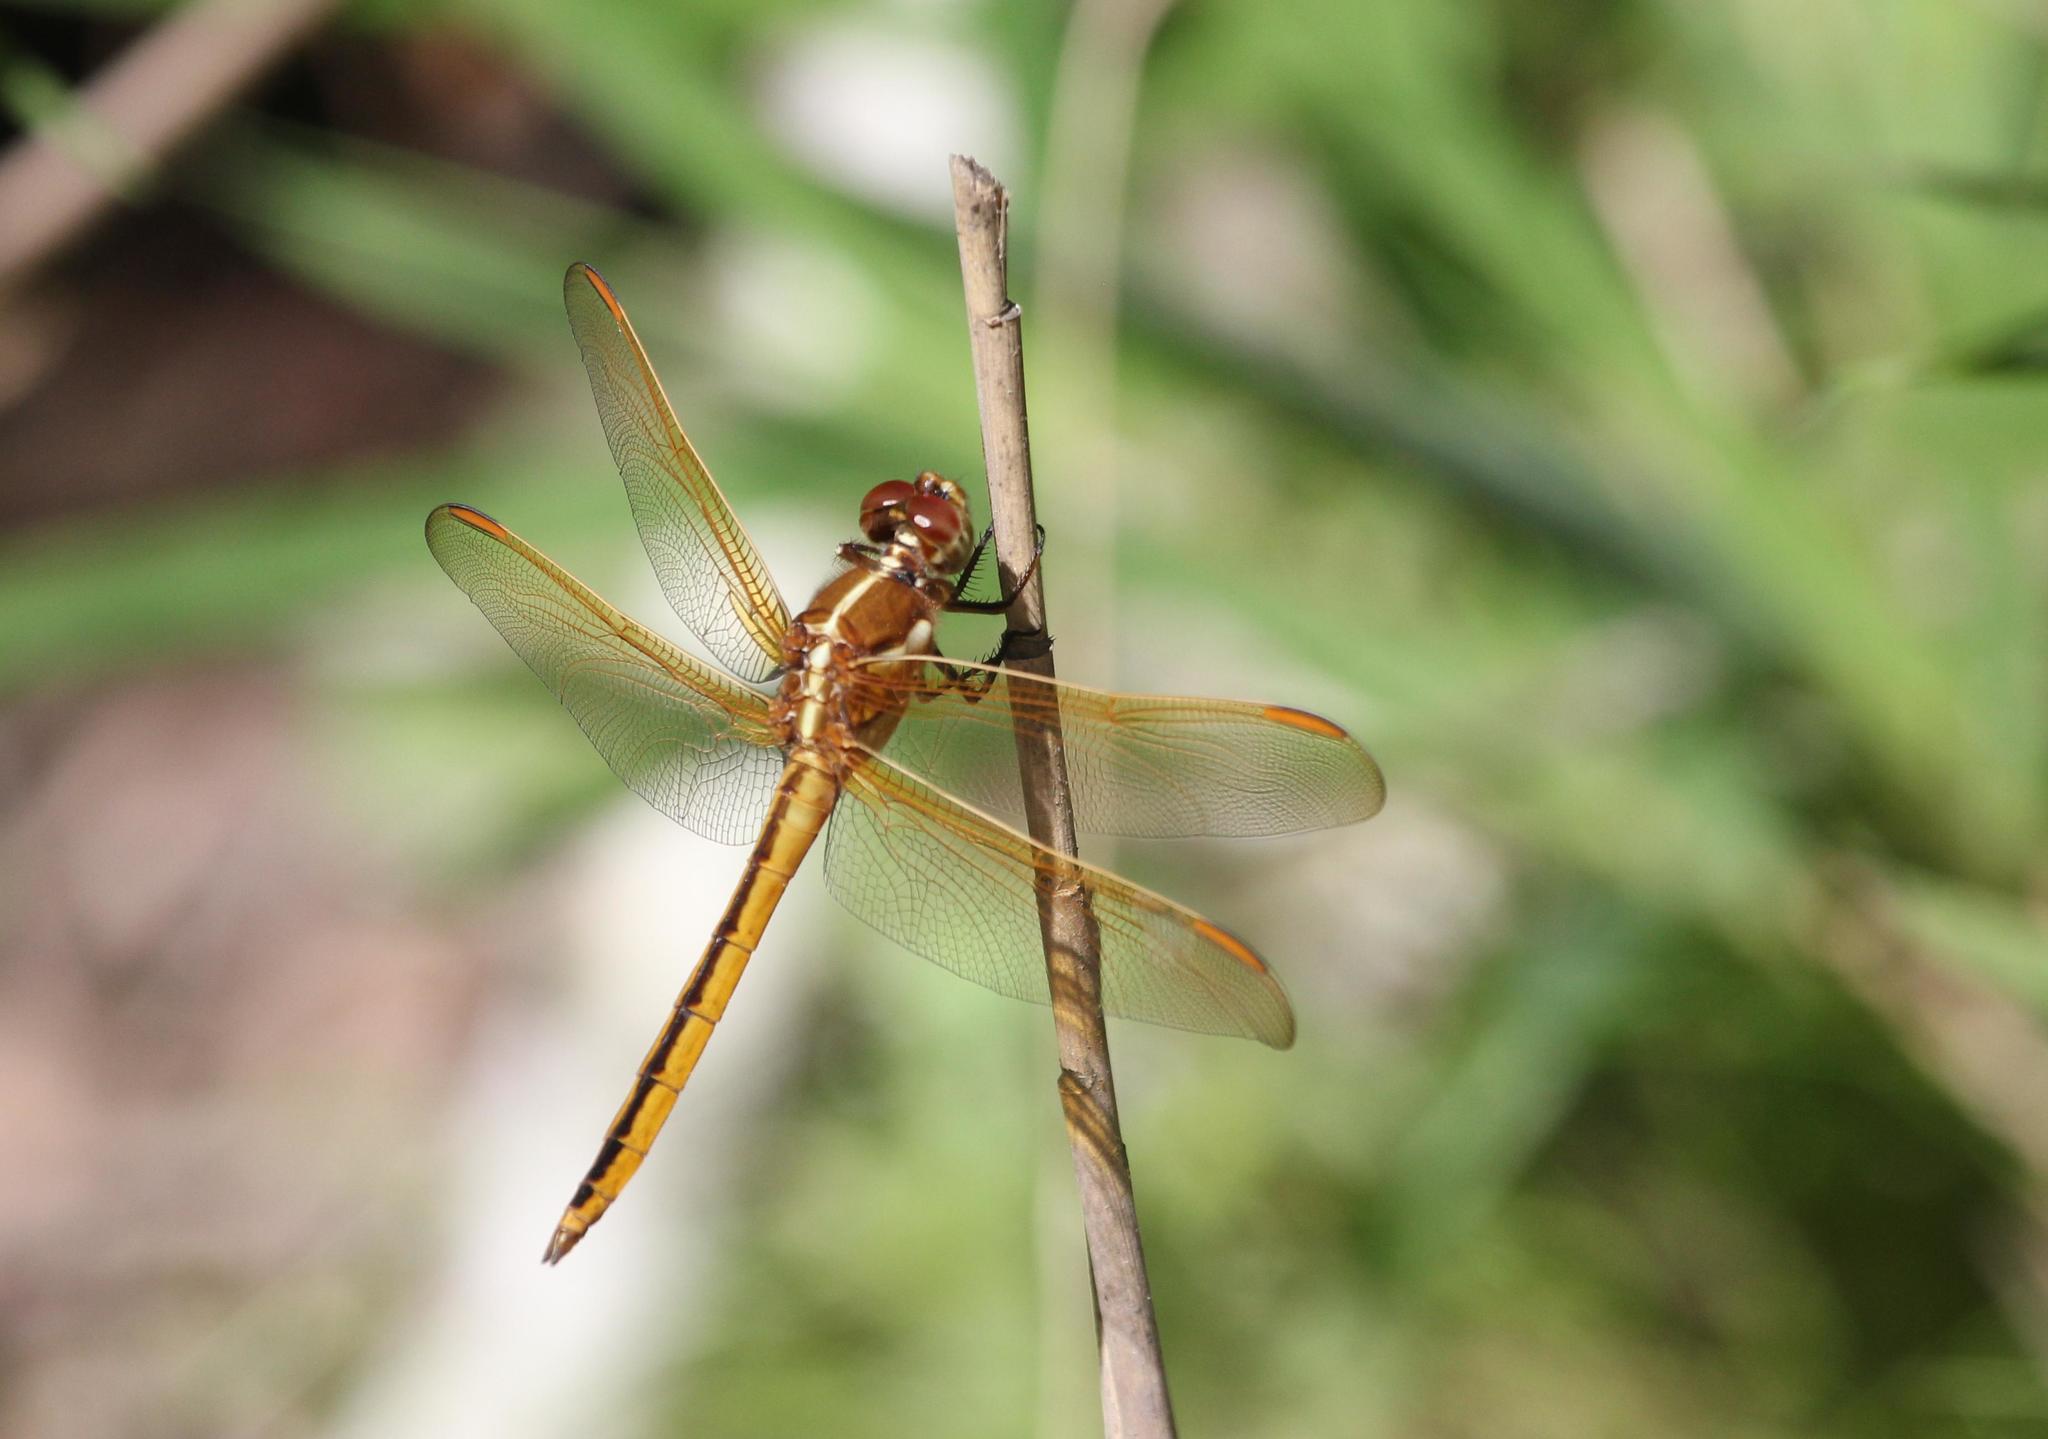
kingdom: Animalia
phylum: Arthropoda
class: Insecta
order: Odonata
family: Libellulidae
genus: Libellula
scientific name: Libellula auripennis
